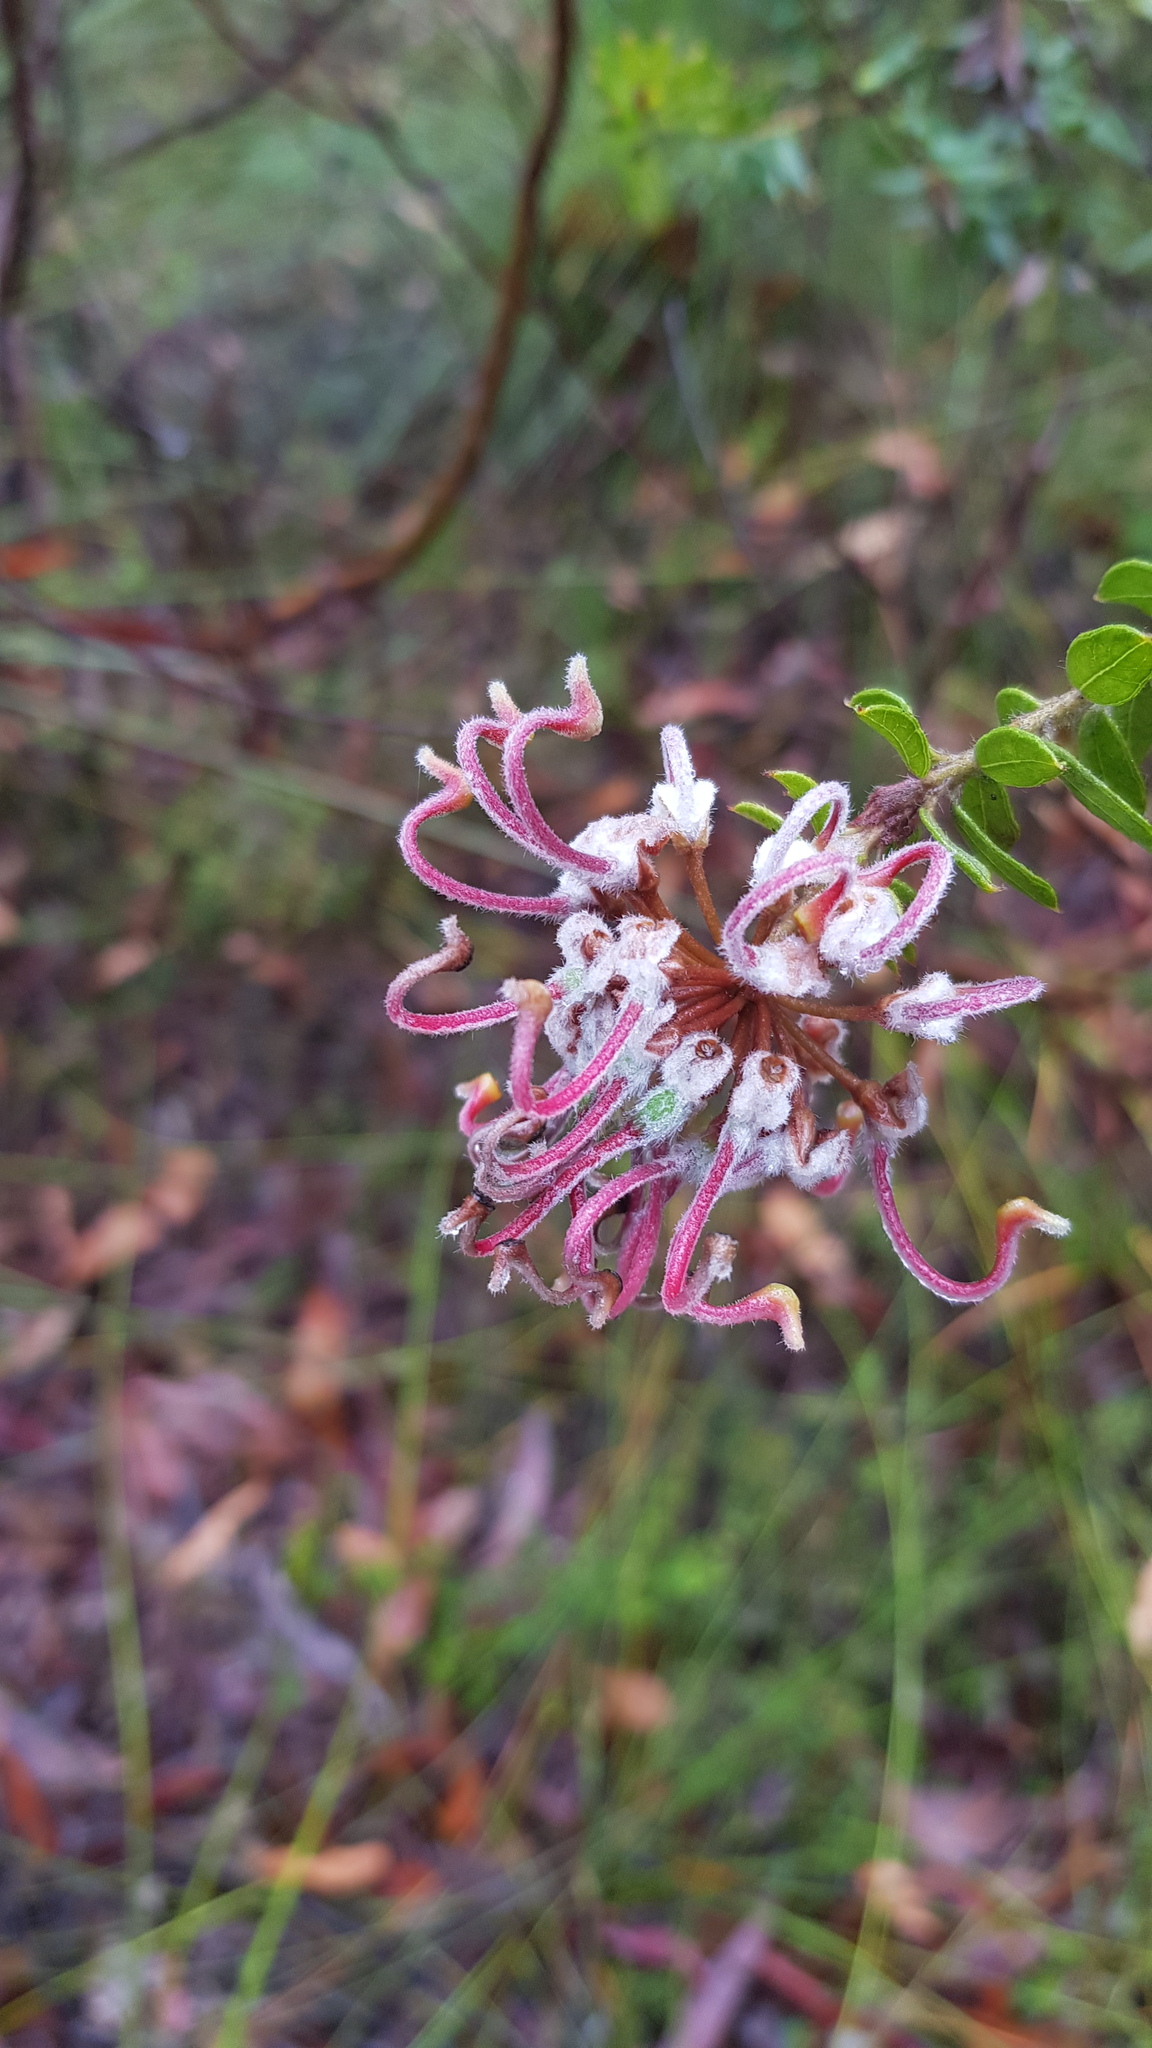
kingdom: Plantae
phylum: Tracheophyta
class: Magnoliopsida
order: Proteales
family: Proteaceae
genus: Grevillea
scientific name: Grevillea buxifolia
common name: Grey spiderflower
